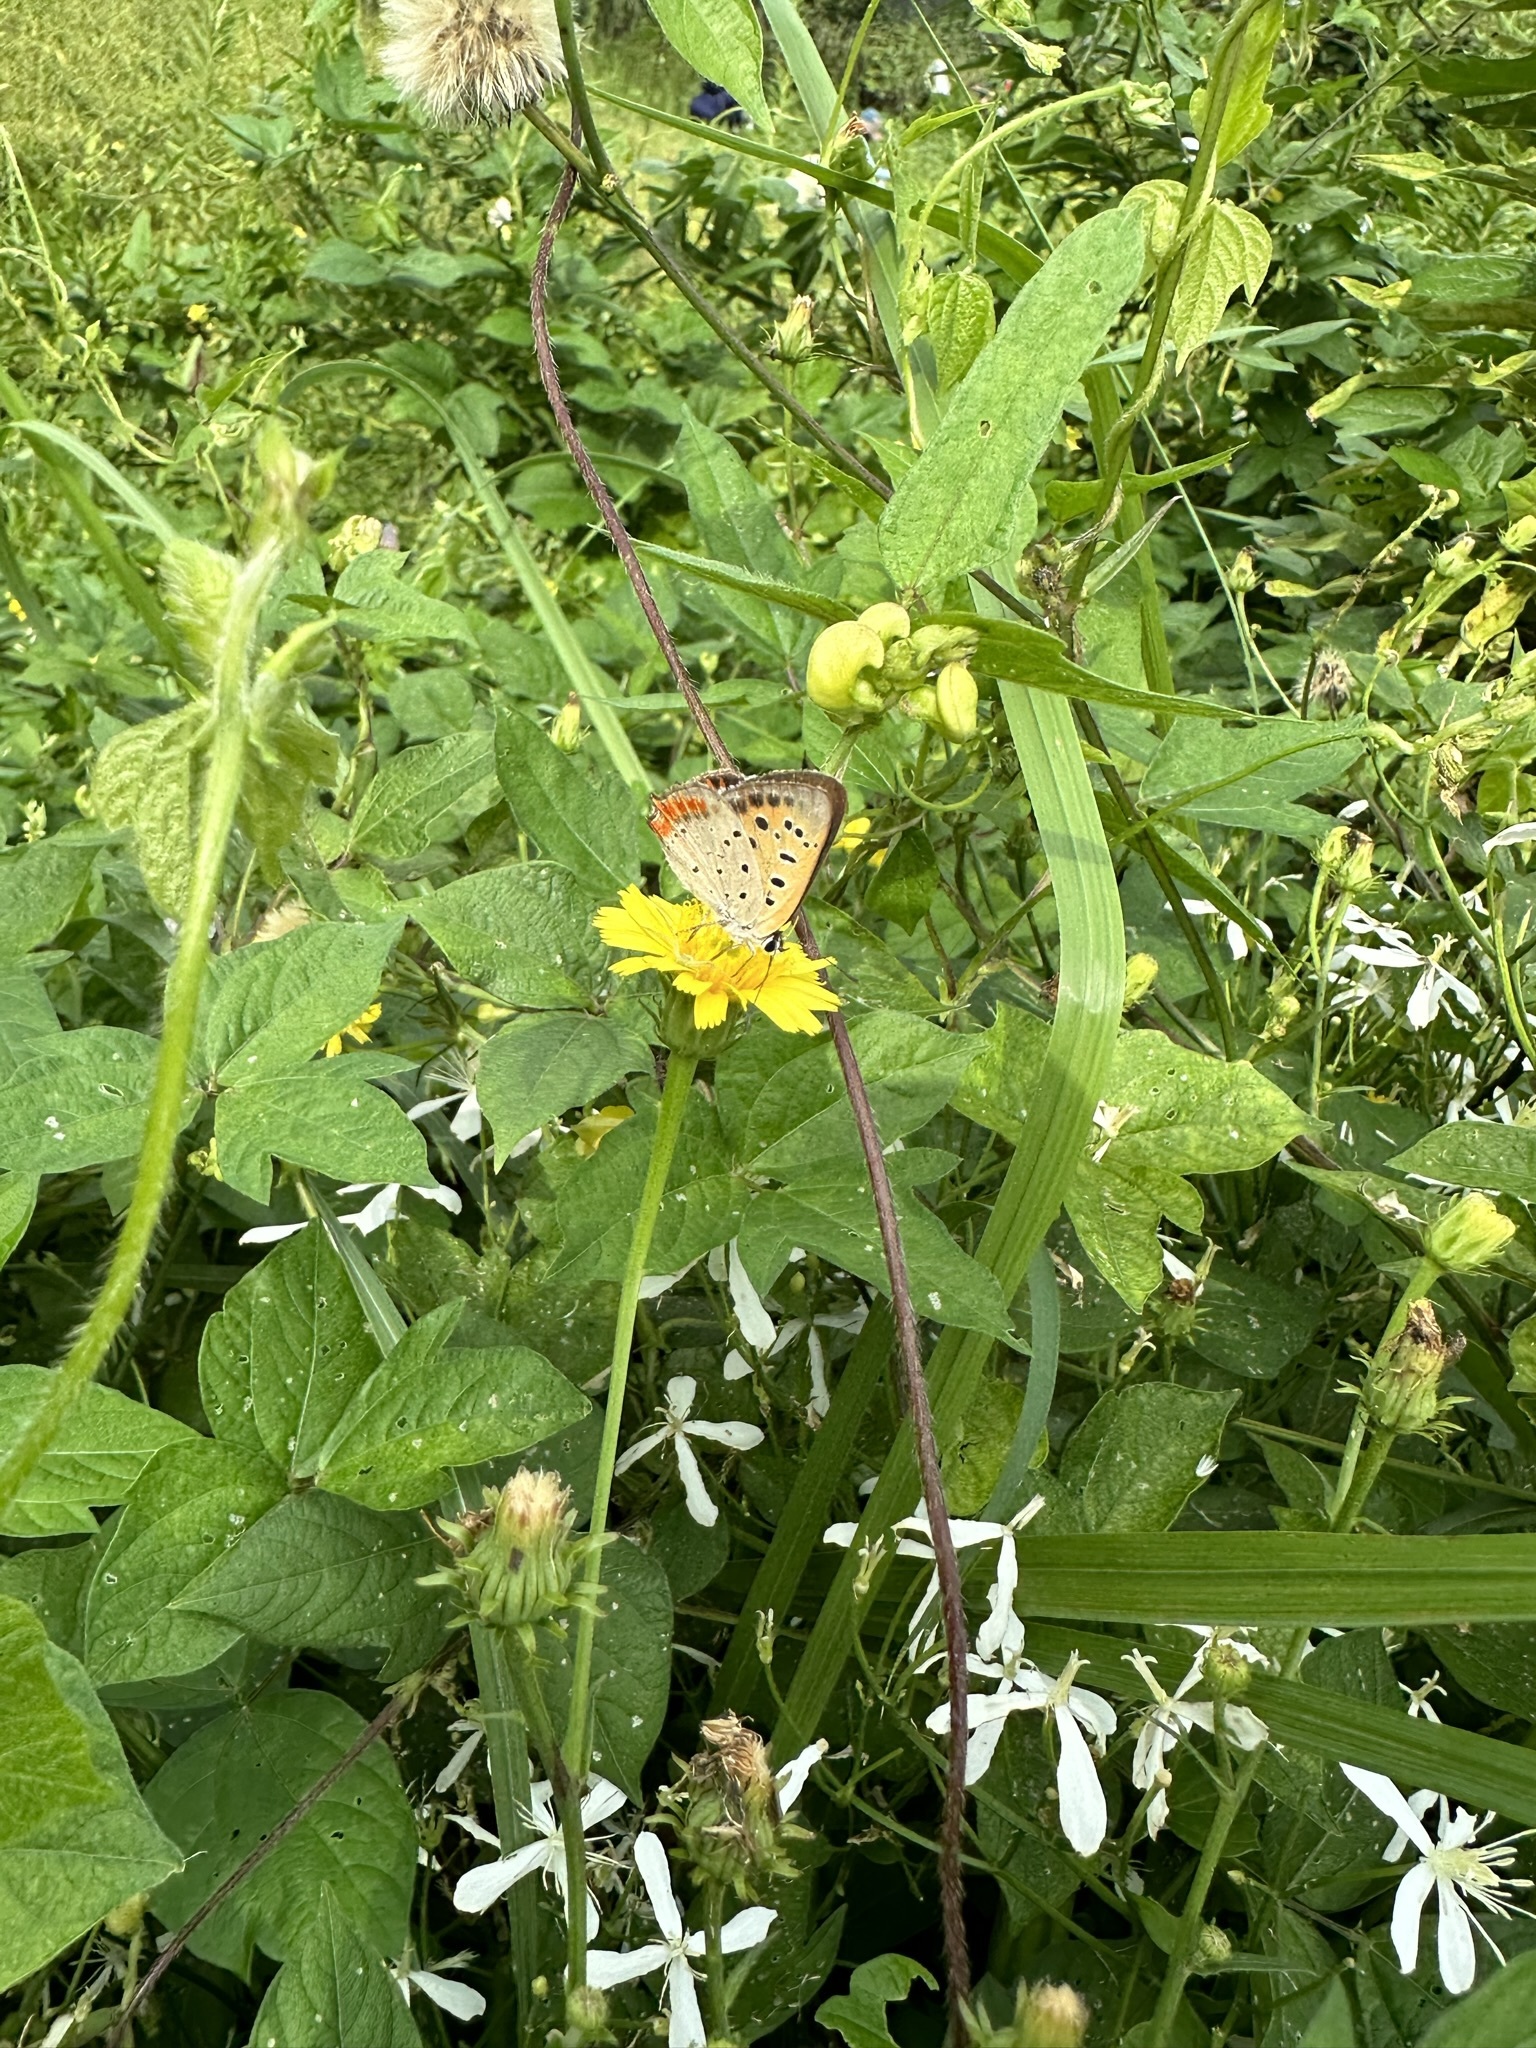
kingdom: Animalia
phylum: Arthropoda
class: Insecta
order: Lepidoptera
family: Lycaenidae
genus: Lycaena
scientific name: Lycaena phlaeas
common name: Small copper
